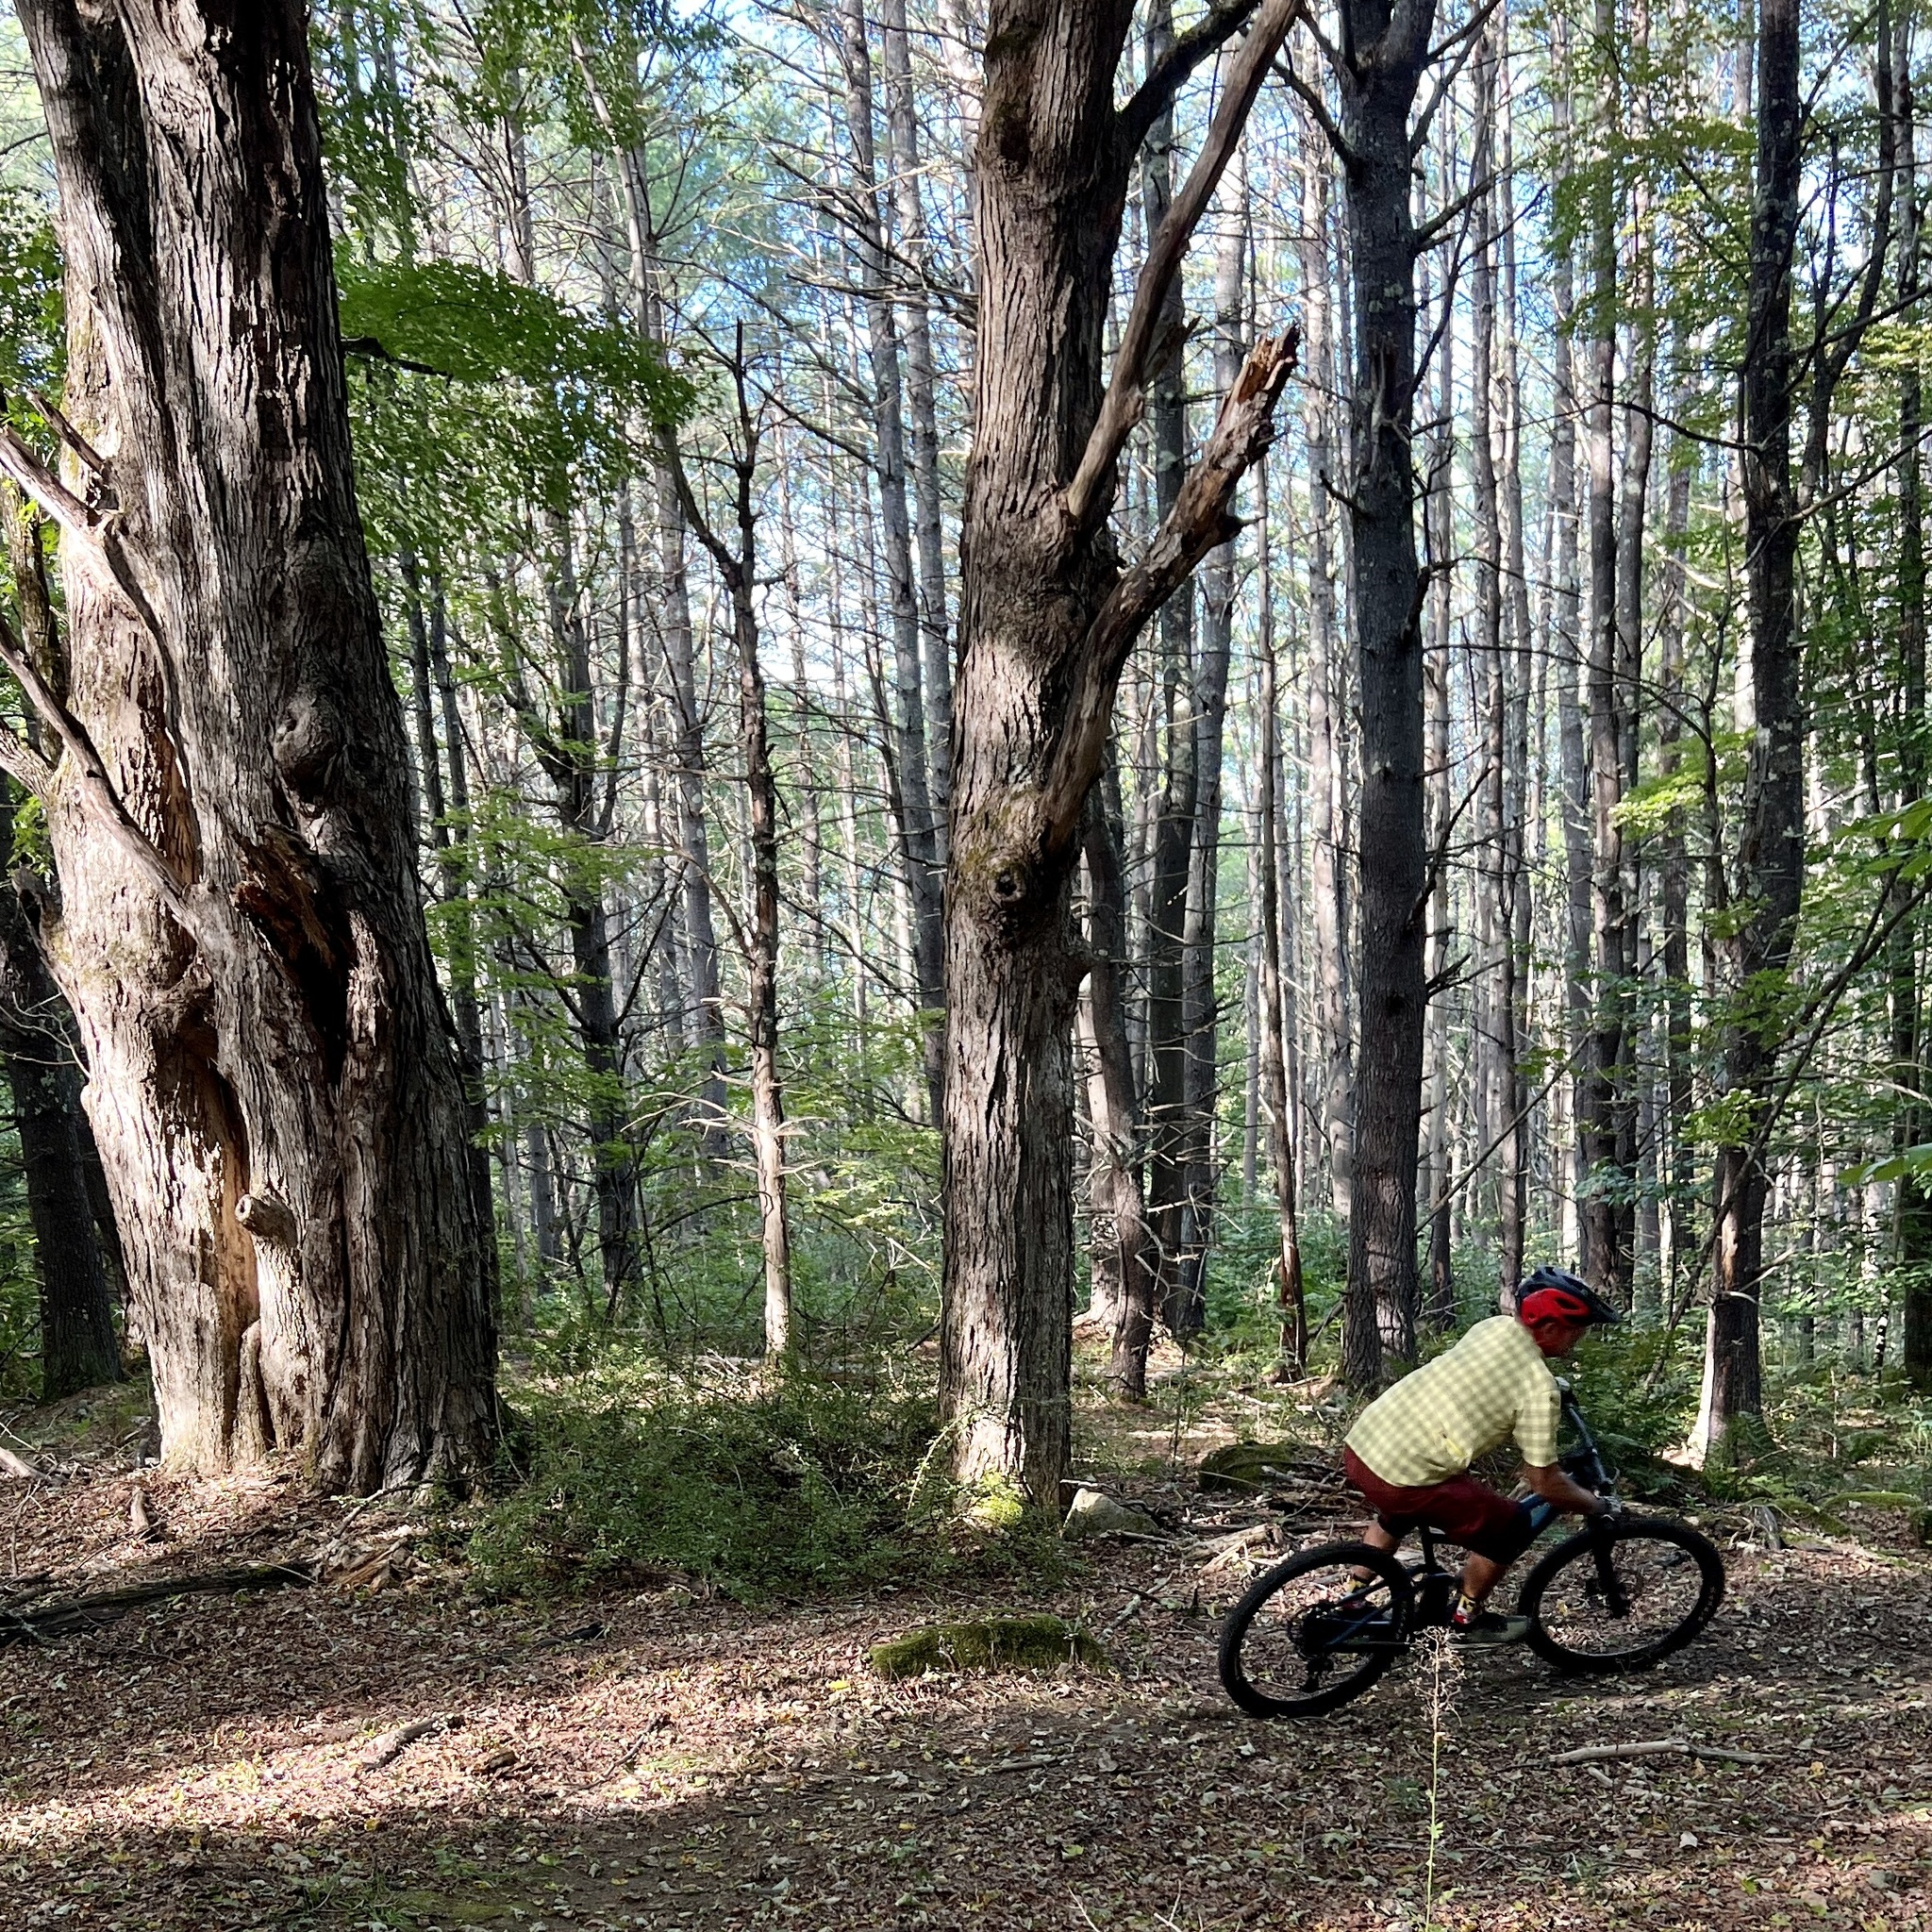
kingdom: Plantae
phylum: Tracheophyta
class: Magnoliopsida
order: Sapindales
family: Sapindaceae
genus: Acer
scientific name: Acer saccharum
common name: Sugar maple
